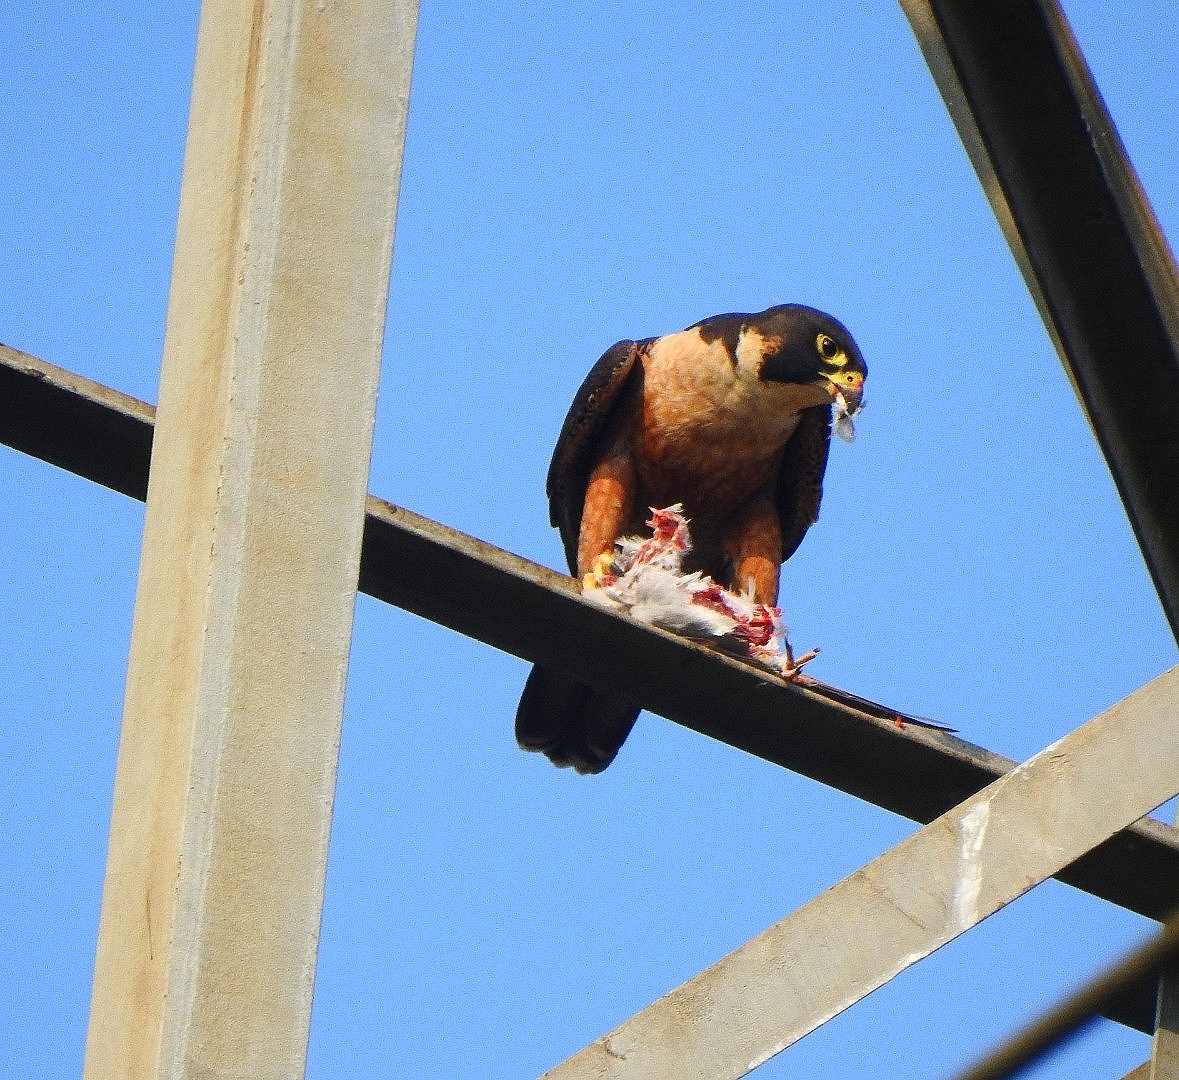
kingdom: Animalia
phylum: Chordata
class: Aves
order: Falconiformes
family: Falconidae
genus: Falco
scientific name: Falco peregrinus
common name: Peregrine falcon
